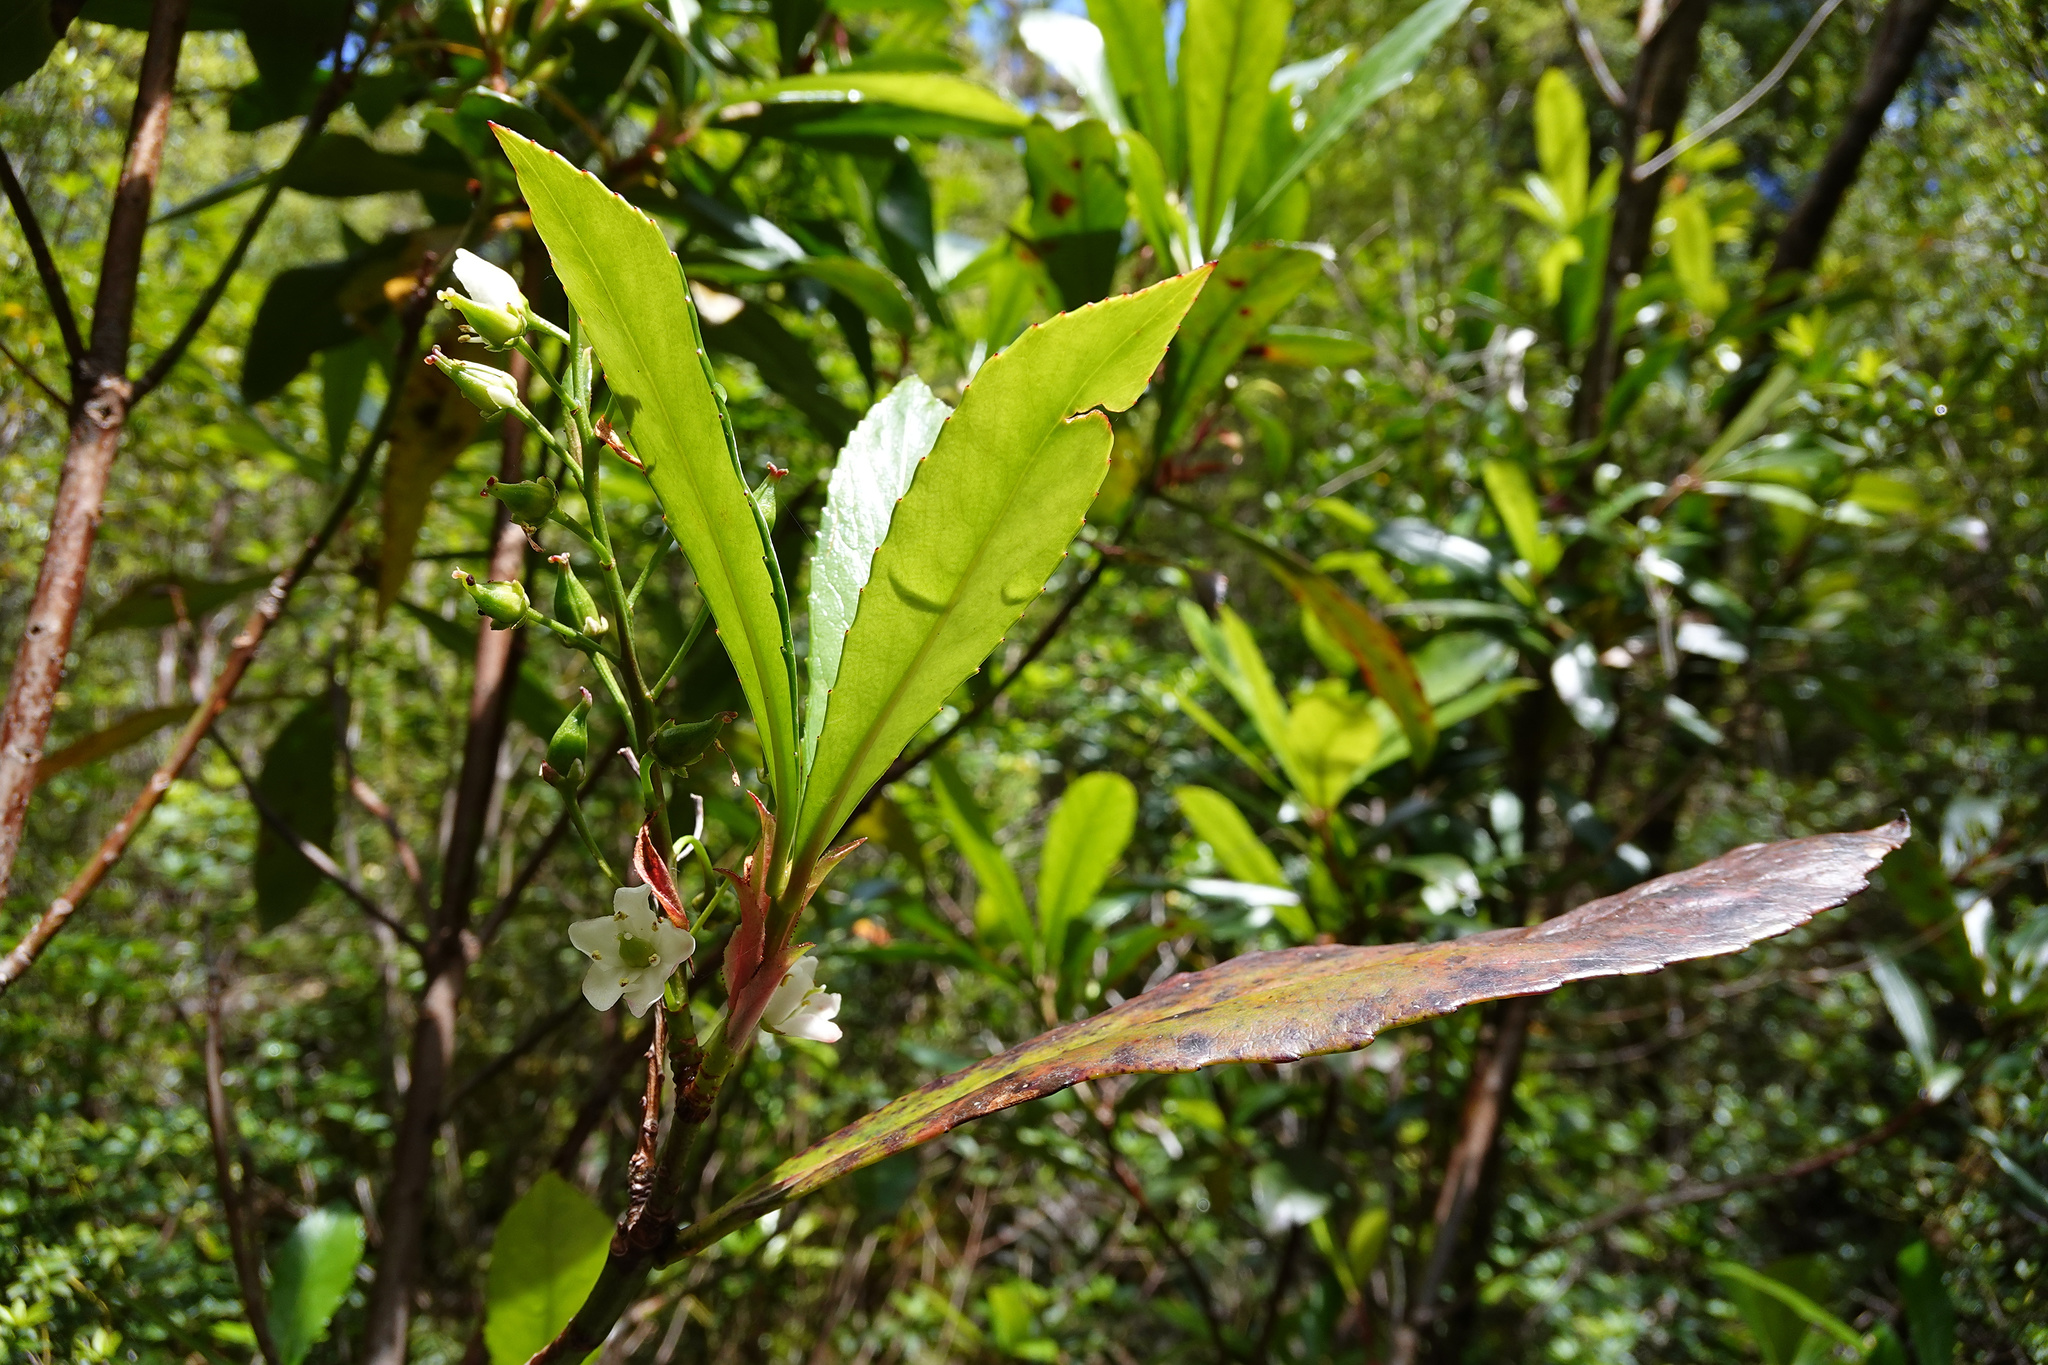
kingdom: Plantae
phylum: Tracheophyta
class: Magnoliopsida
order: Escalloniales
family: Escalloniaceae
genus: Anopterus
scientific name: Anopterus glandulosus
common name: Tasmanian-laurel
